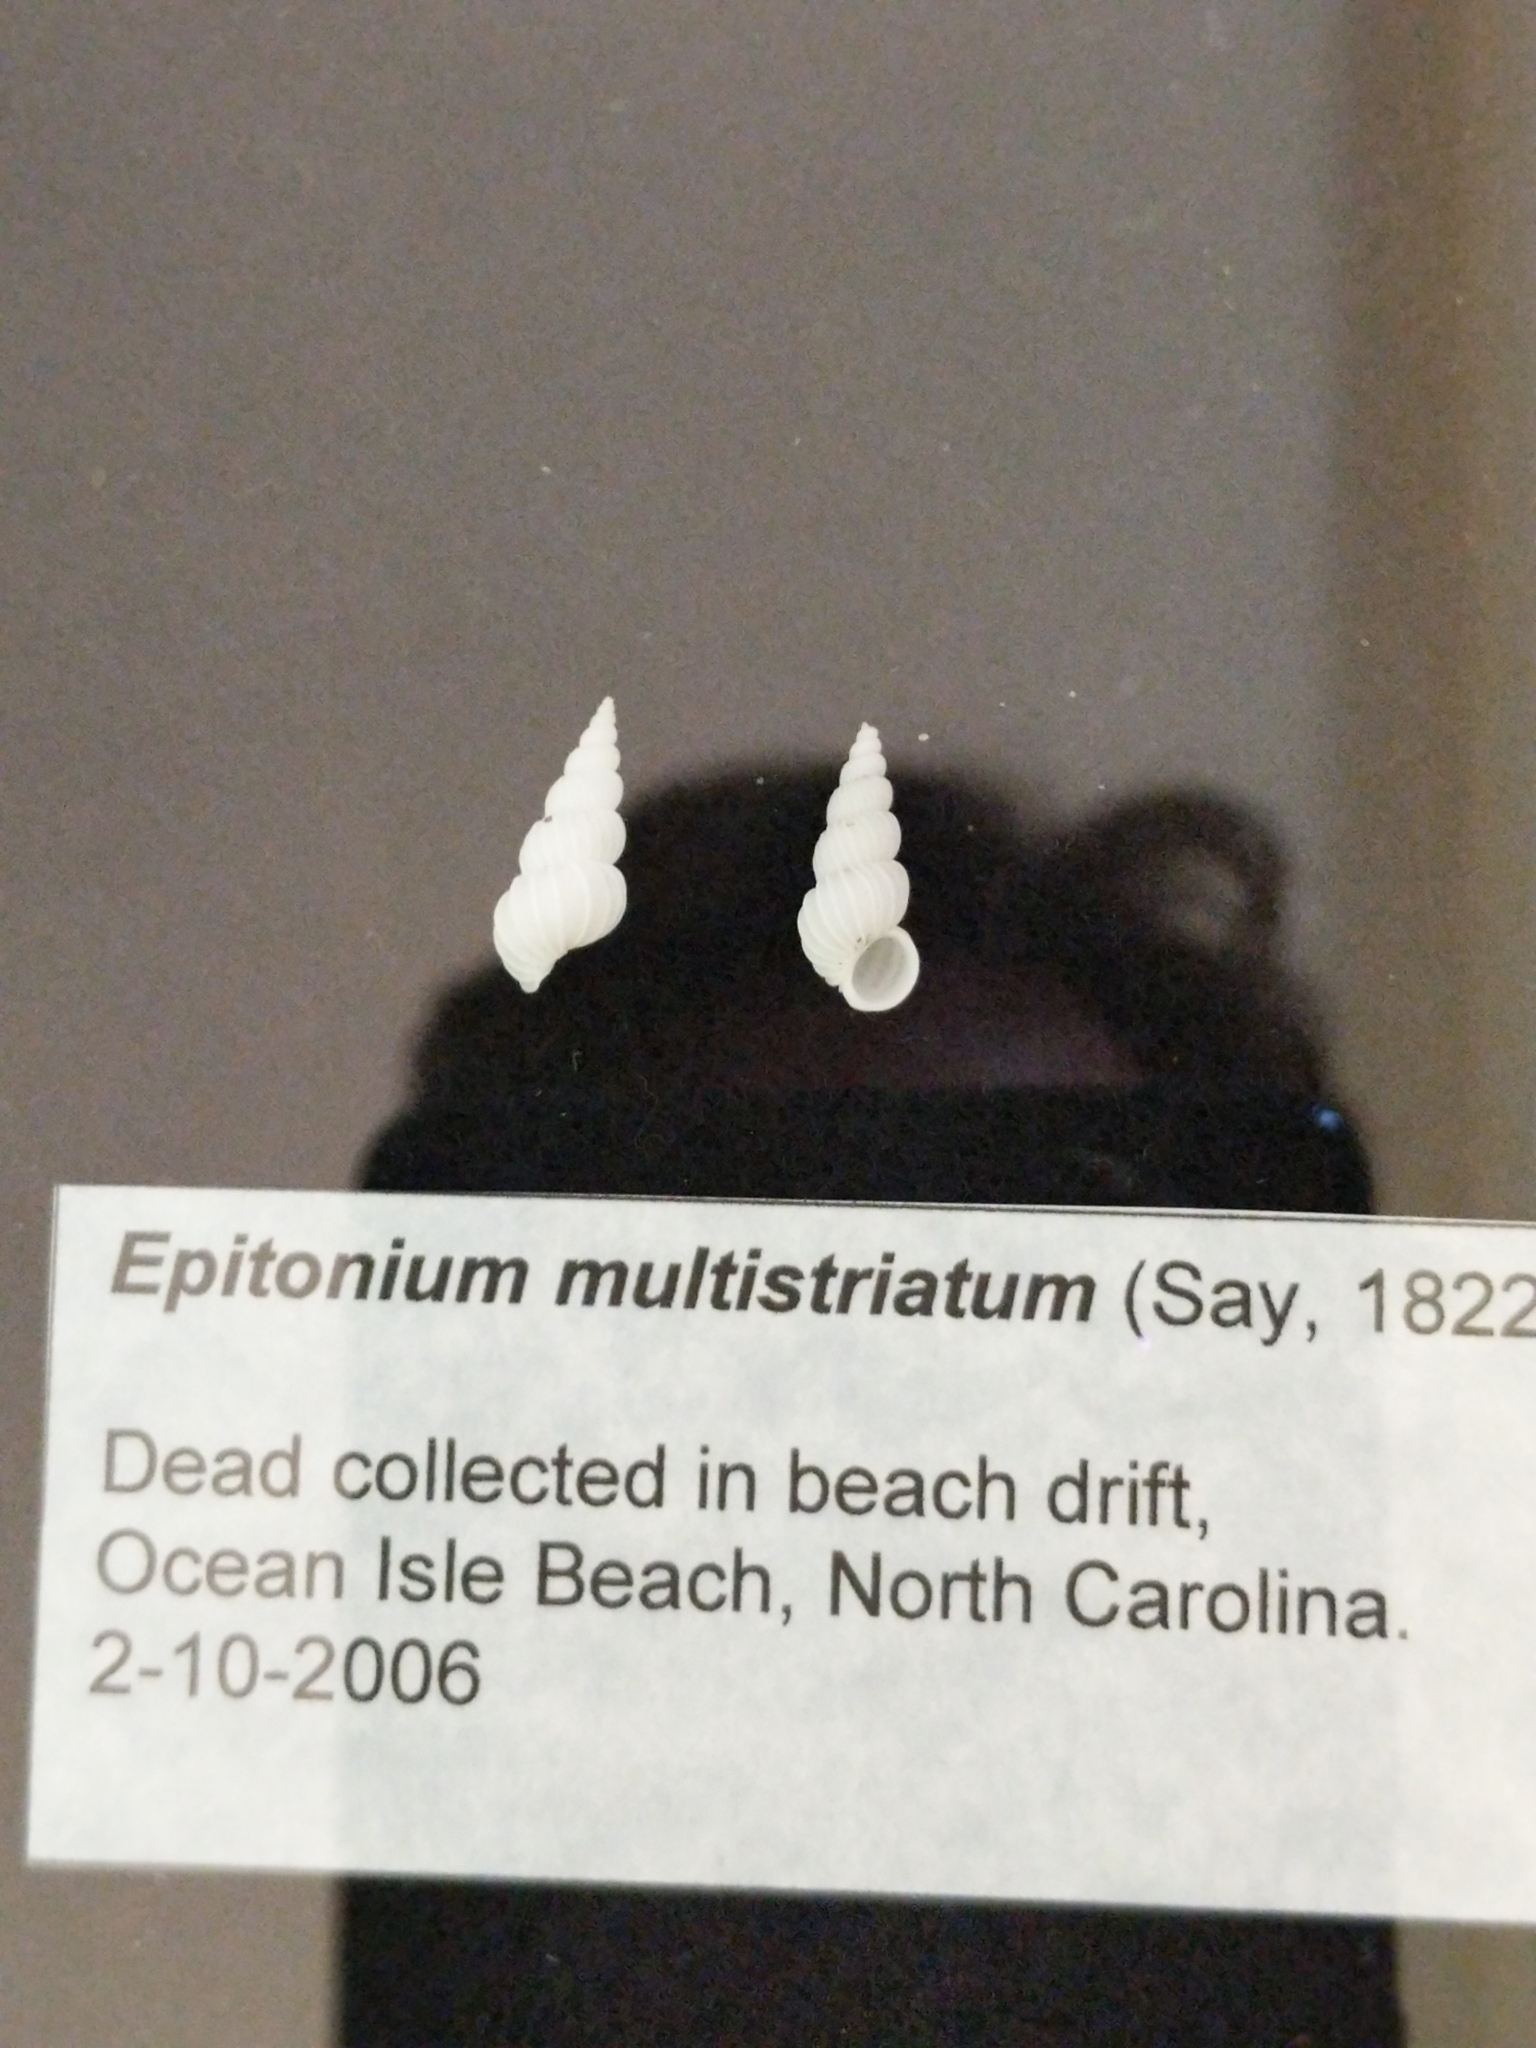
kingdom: Animalia
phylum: Mollusca
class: Gastropoda
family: Epitoniidae
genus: Epitonium
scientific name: Epitonium multistriatum
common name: Many-ribbed wentletrap
